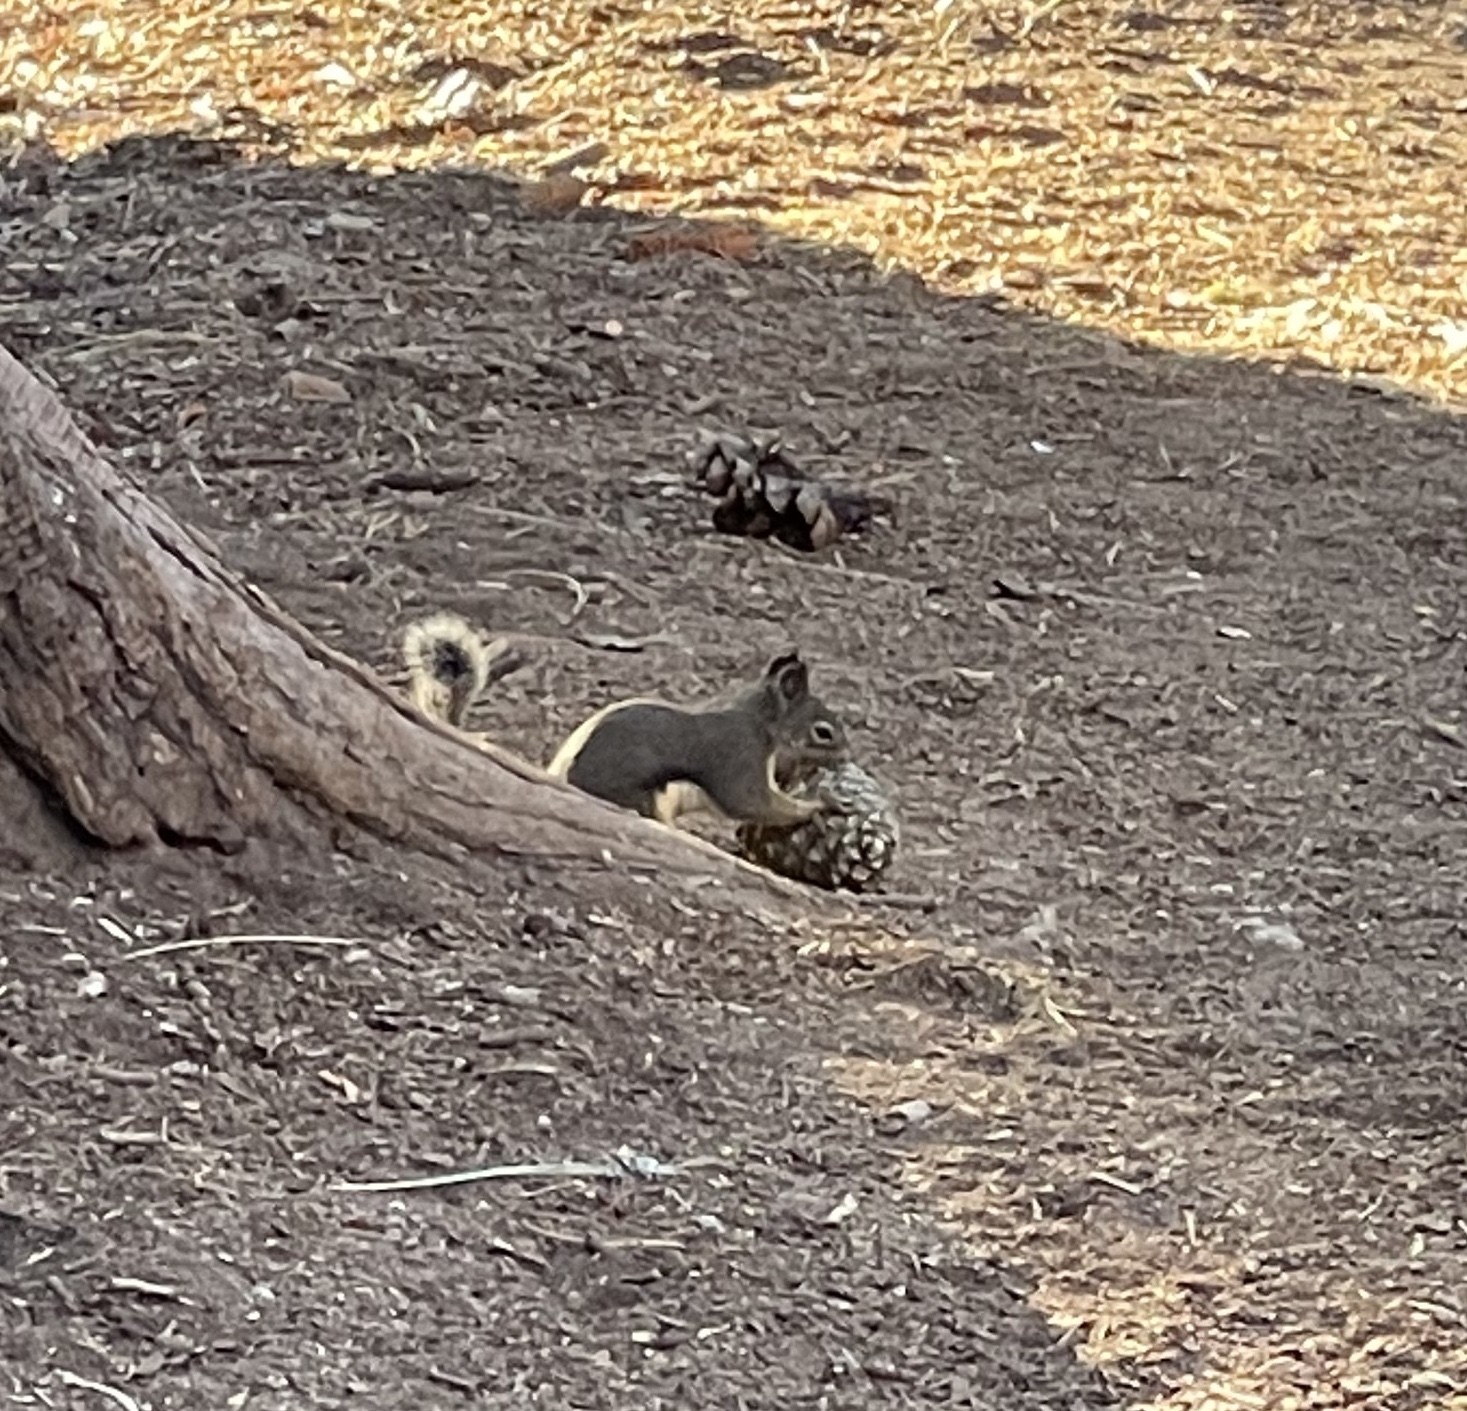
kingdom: Animalia
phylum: Chordata
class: Mammalia
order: Rodentia
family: Sciuridae
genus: Tamiasciurus
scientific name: Tamiasciurus douglasii
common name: Douglas's squirrel
